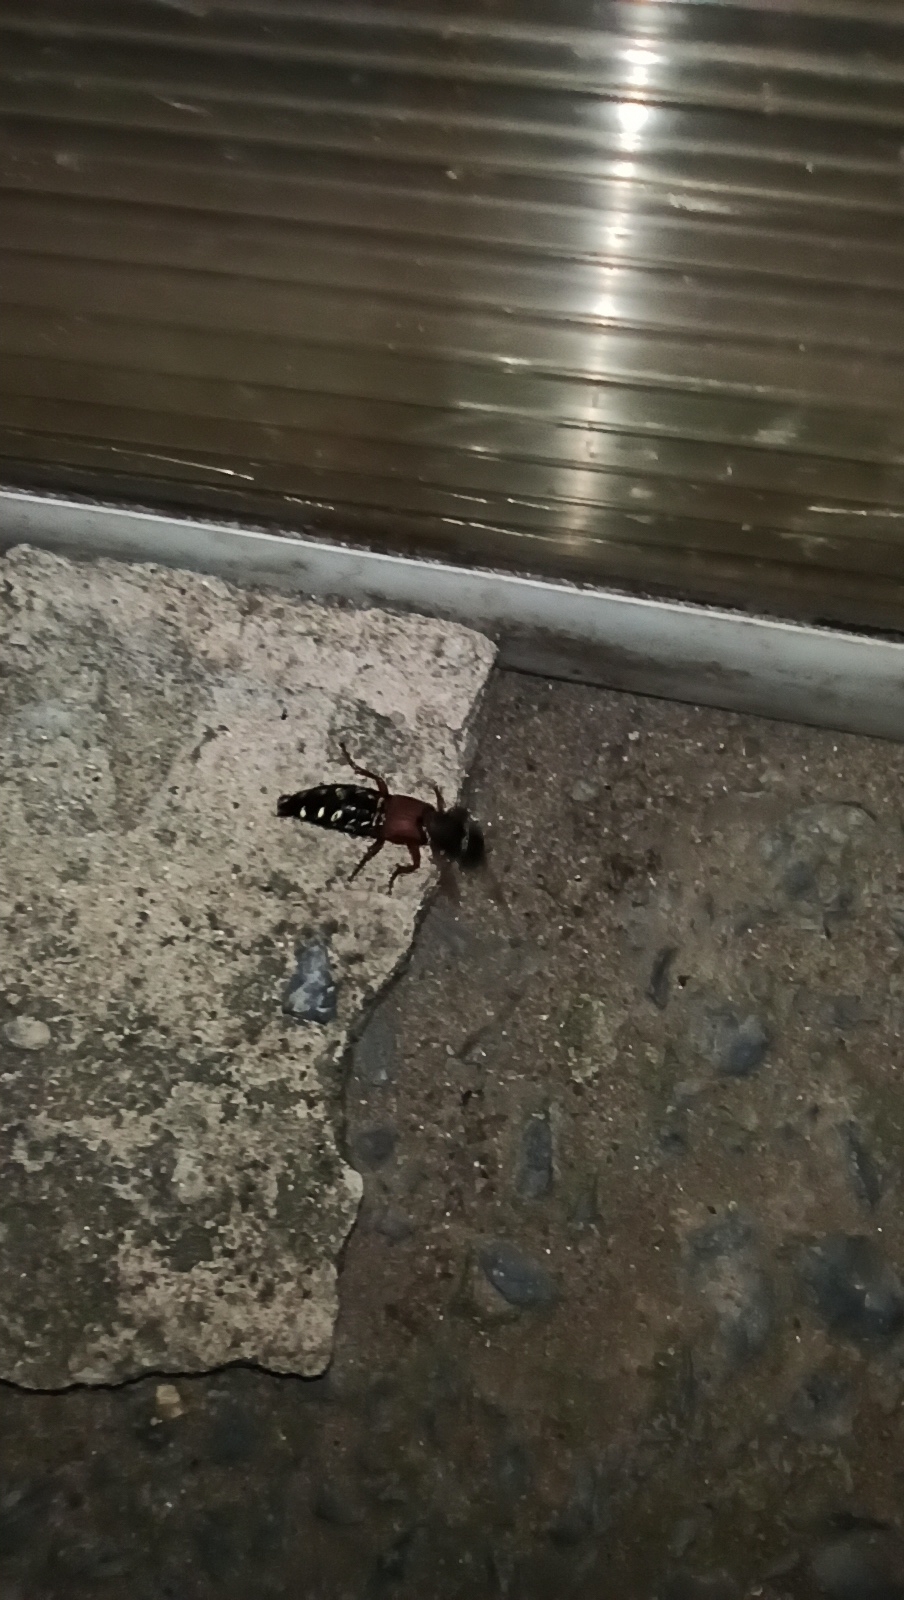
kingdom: Animalia
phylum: Arthropoda
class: Insecta
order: Coleoptera
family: Staphylinidae
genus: Staphylinus
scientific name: Staphylinus caesareus
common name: Staph beetle
